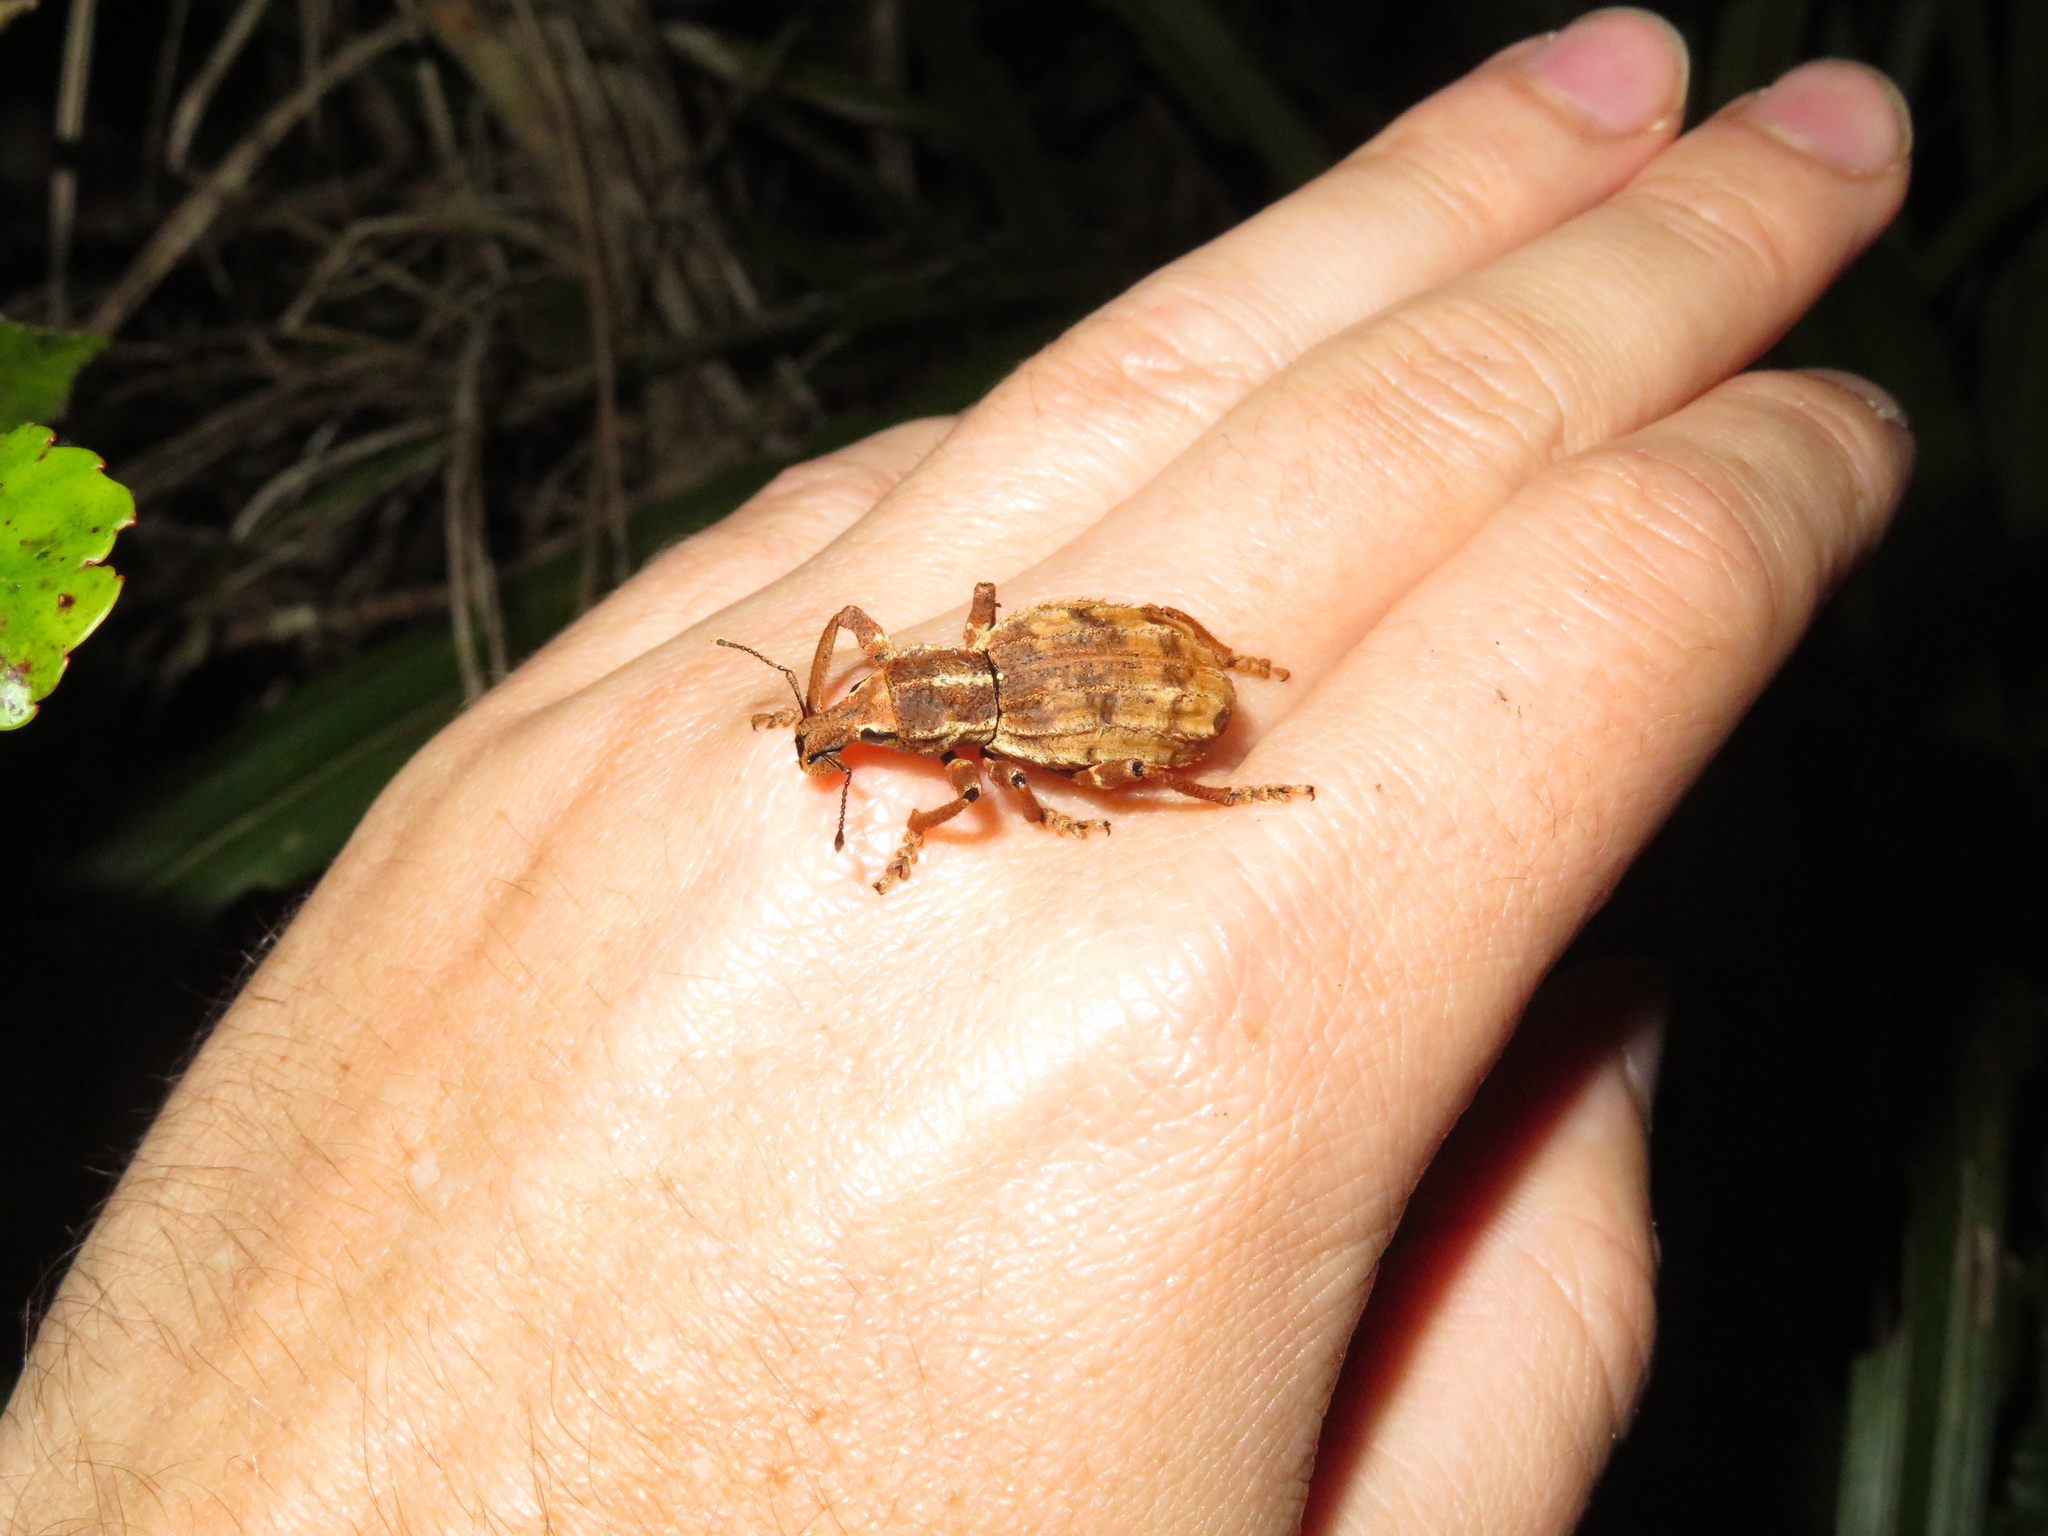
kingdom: Animalia
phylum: Arthropoda
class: Insecta
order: Coleoptera
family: Curculionidae
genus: Anagotus
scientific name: Anagotus
